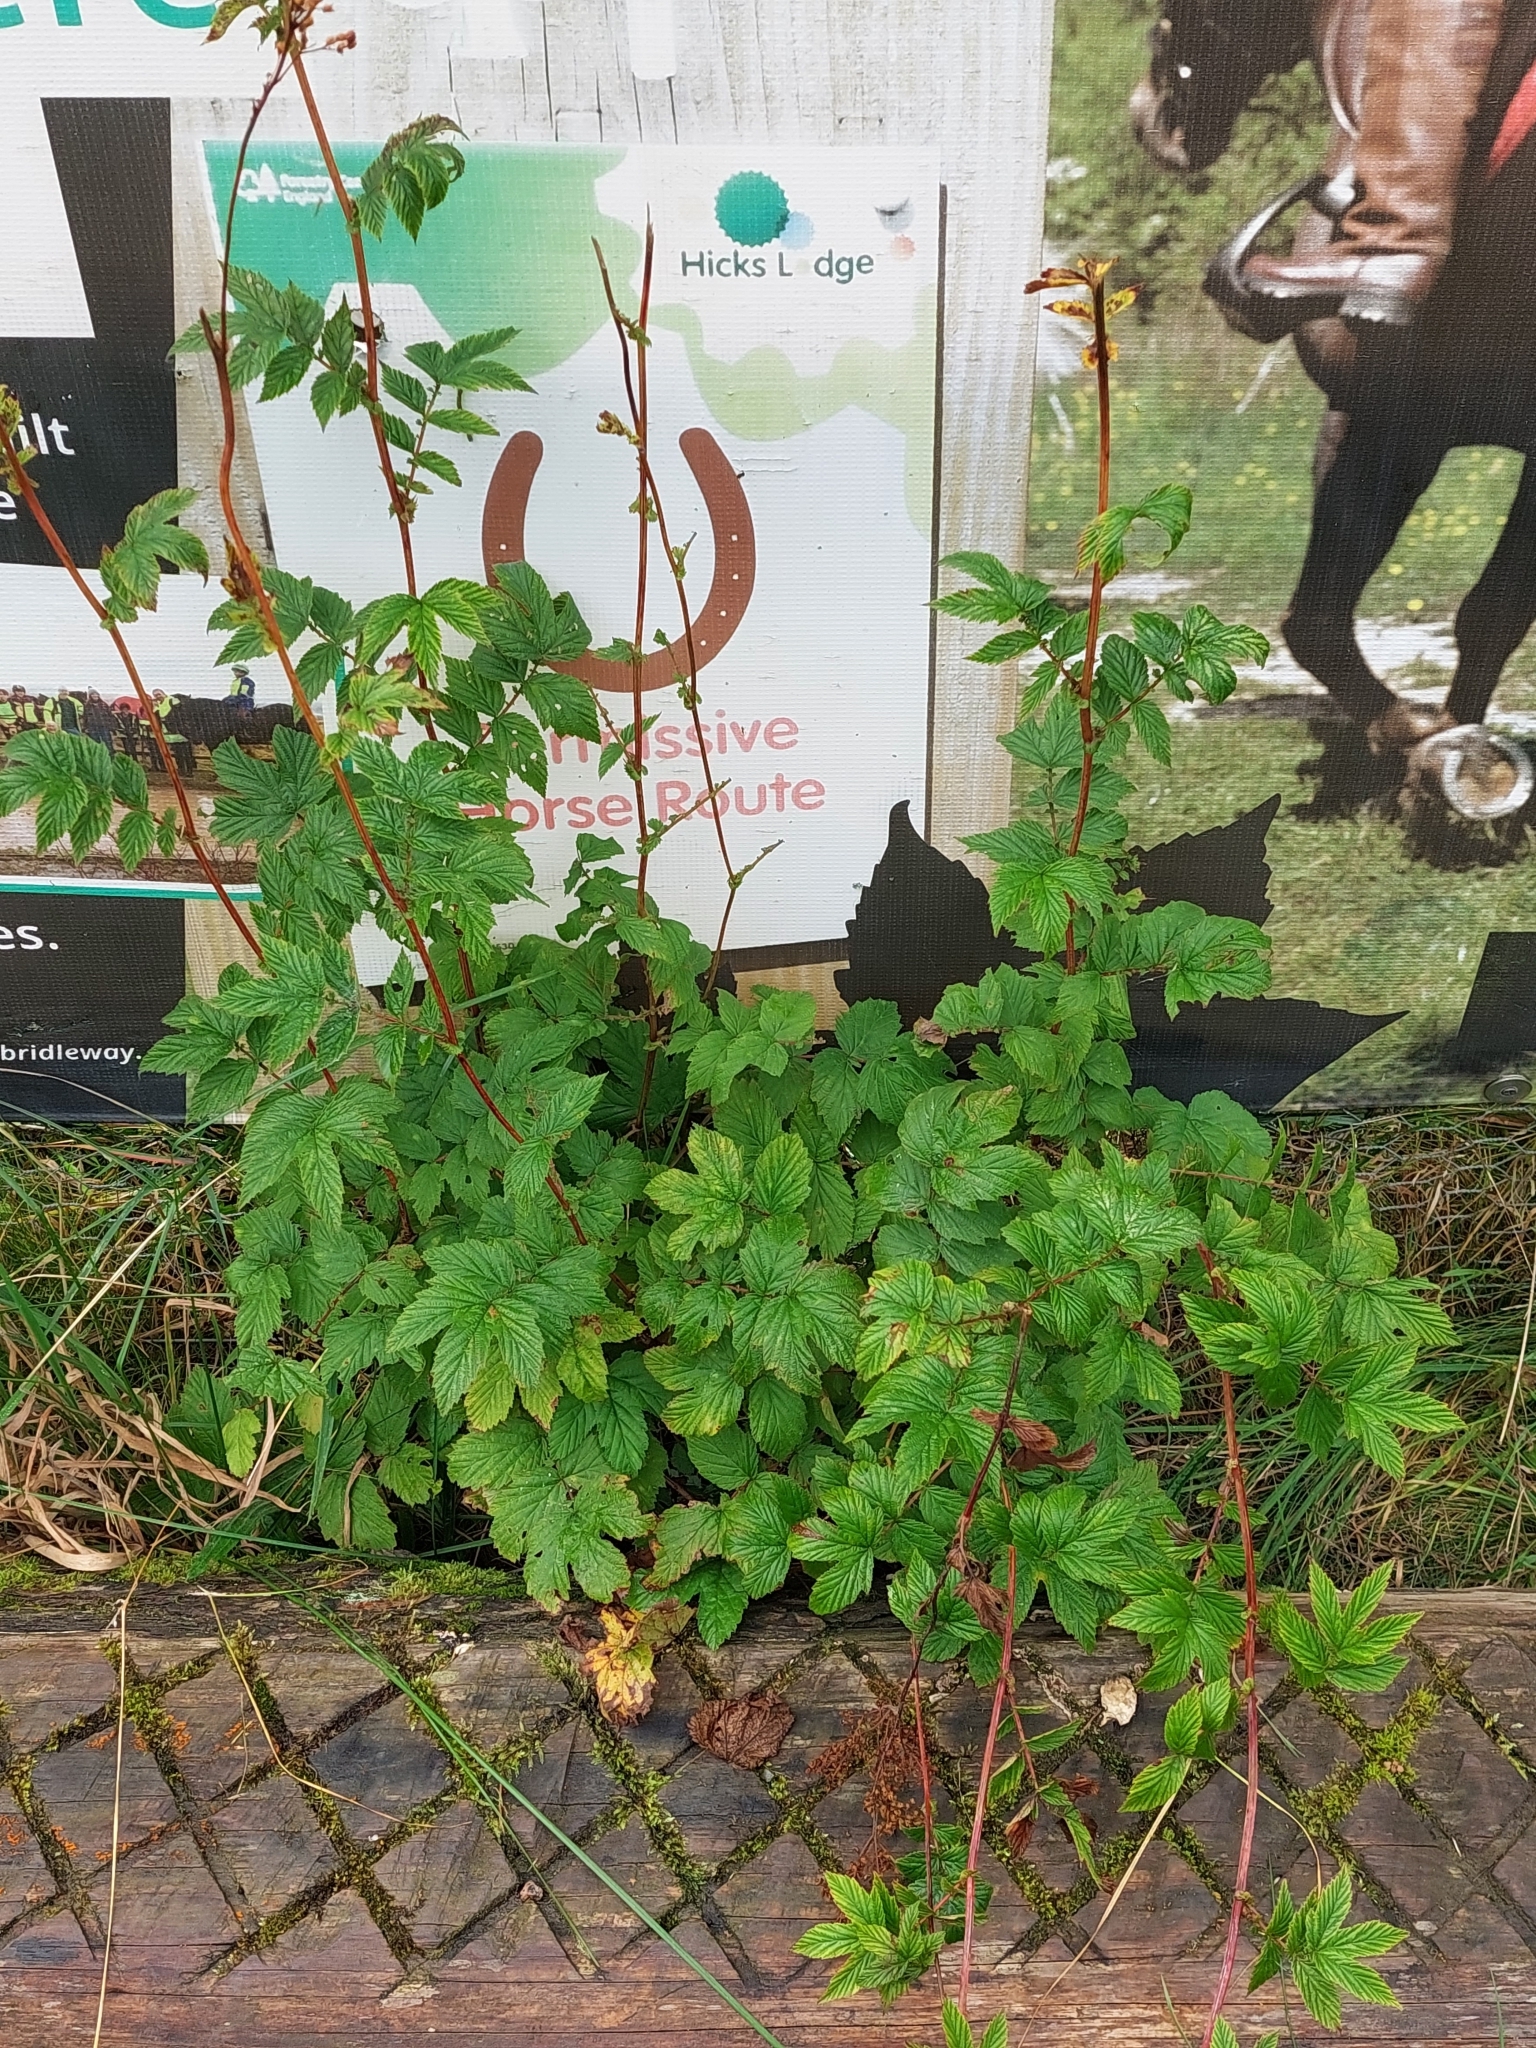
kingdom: Plantae
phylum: Tracheophyta
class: Magnoliopsida
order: Rosales
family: Rosaceae
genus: Filipendula
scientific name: Filipendula ulmaria
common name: Meadowsweet
